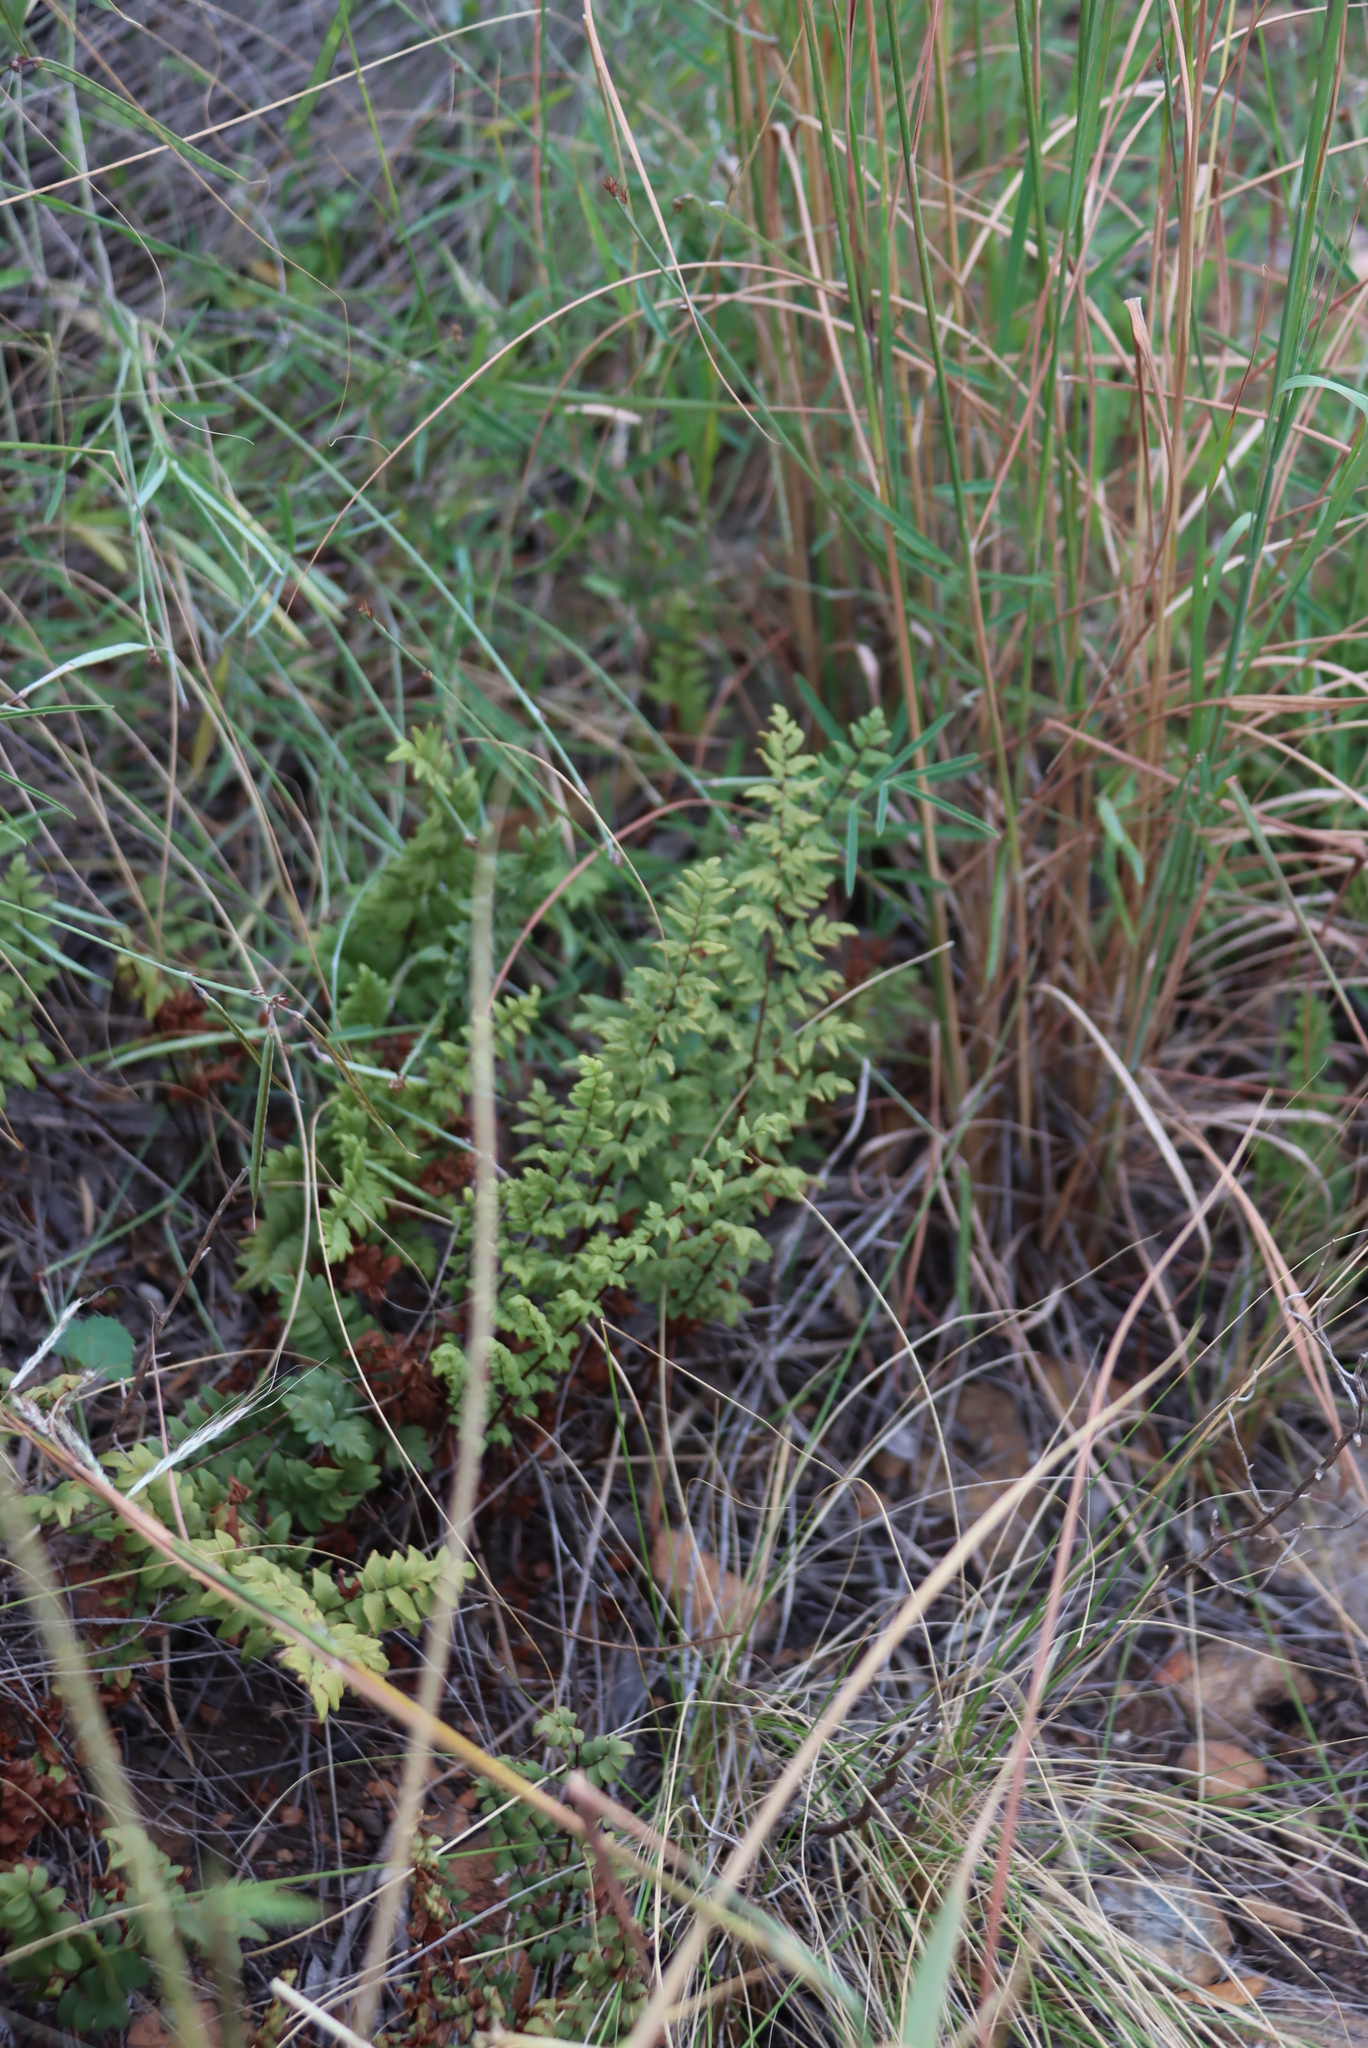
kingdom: Plantae
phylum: Tracheophyta
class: Polypodiopsida
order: Polypodiales
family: Pteridaceae
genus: Cheilanthes
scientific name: Cheilanthes viridis
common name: Green cliffbrake
